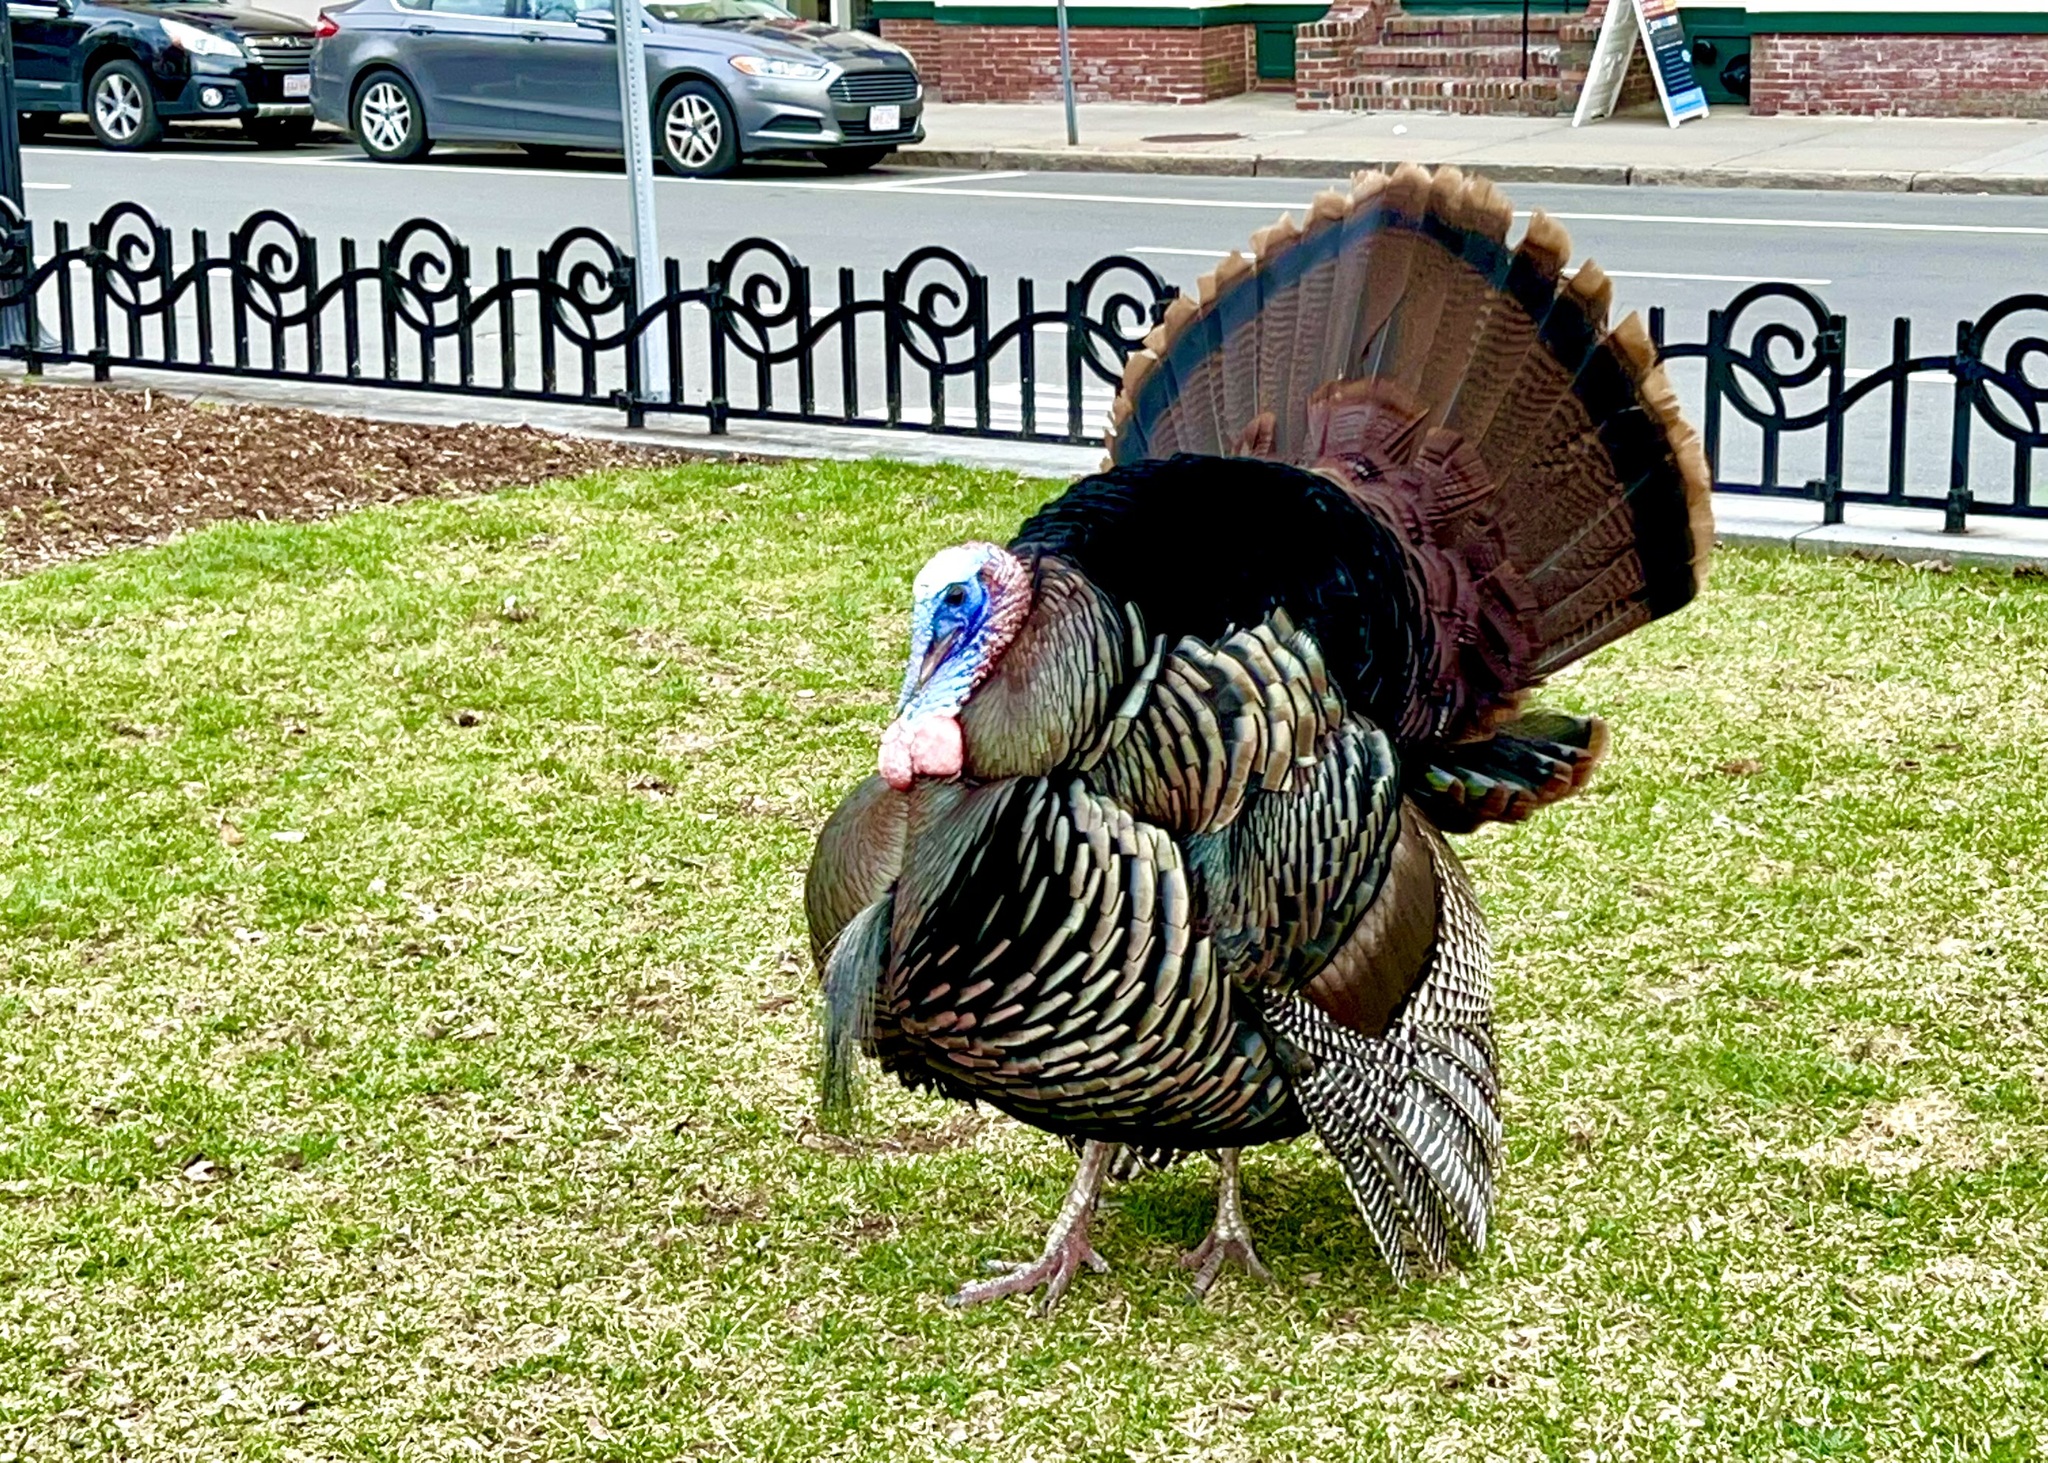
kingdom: Animalia
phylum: Chordata
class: Aves
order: Galliformes
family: Phasianidae
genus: Meleagris
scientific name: Meleagris gallopavo
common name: Wild turkey
